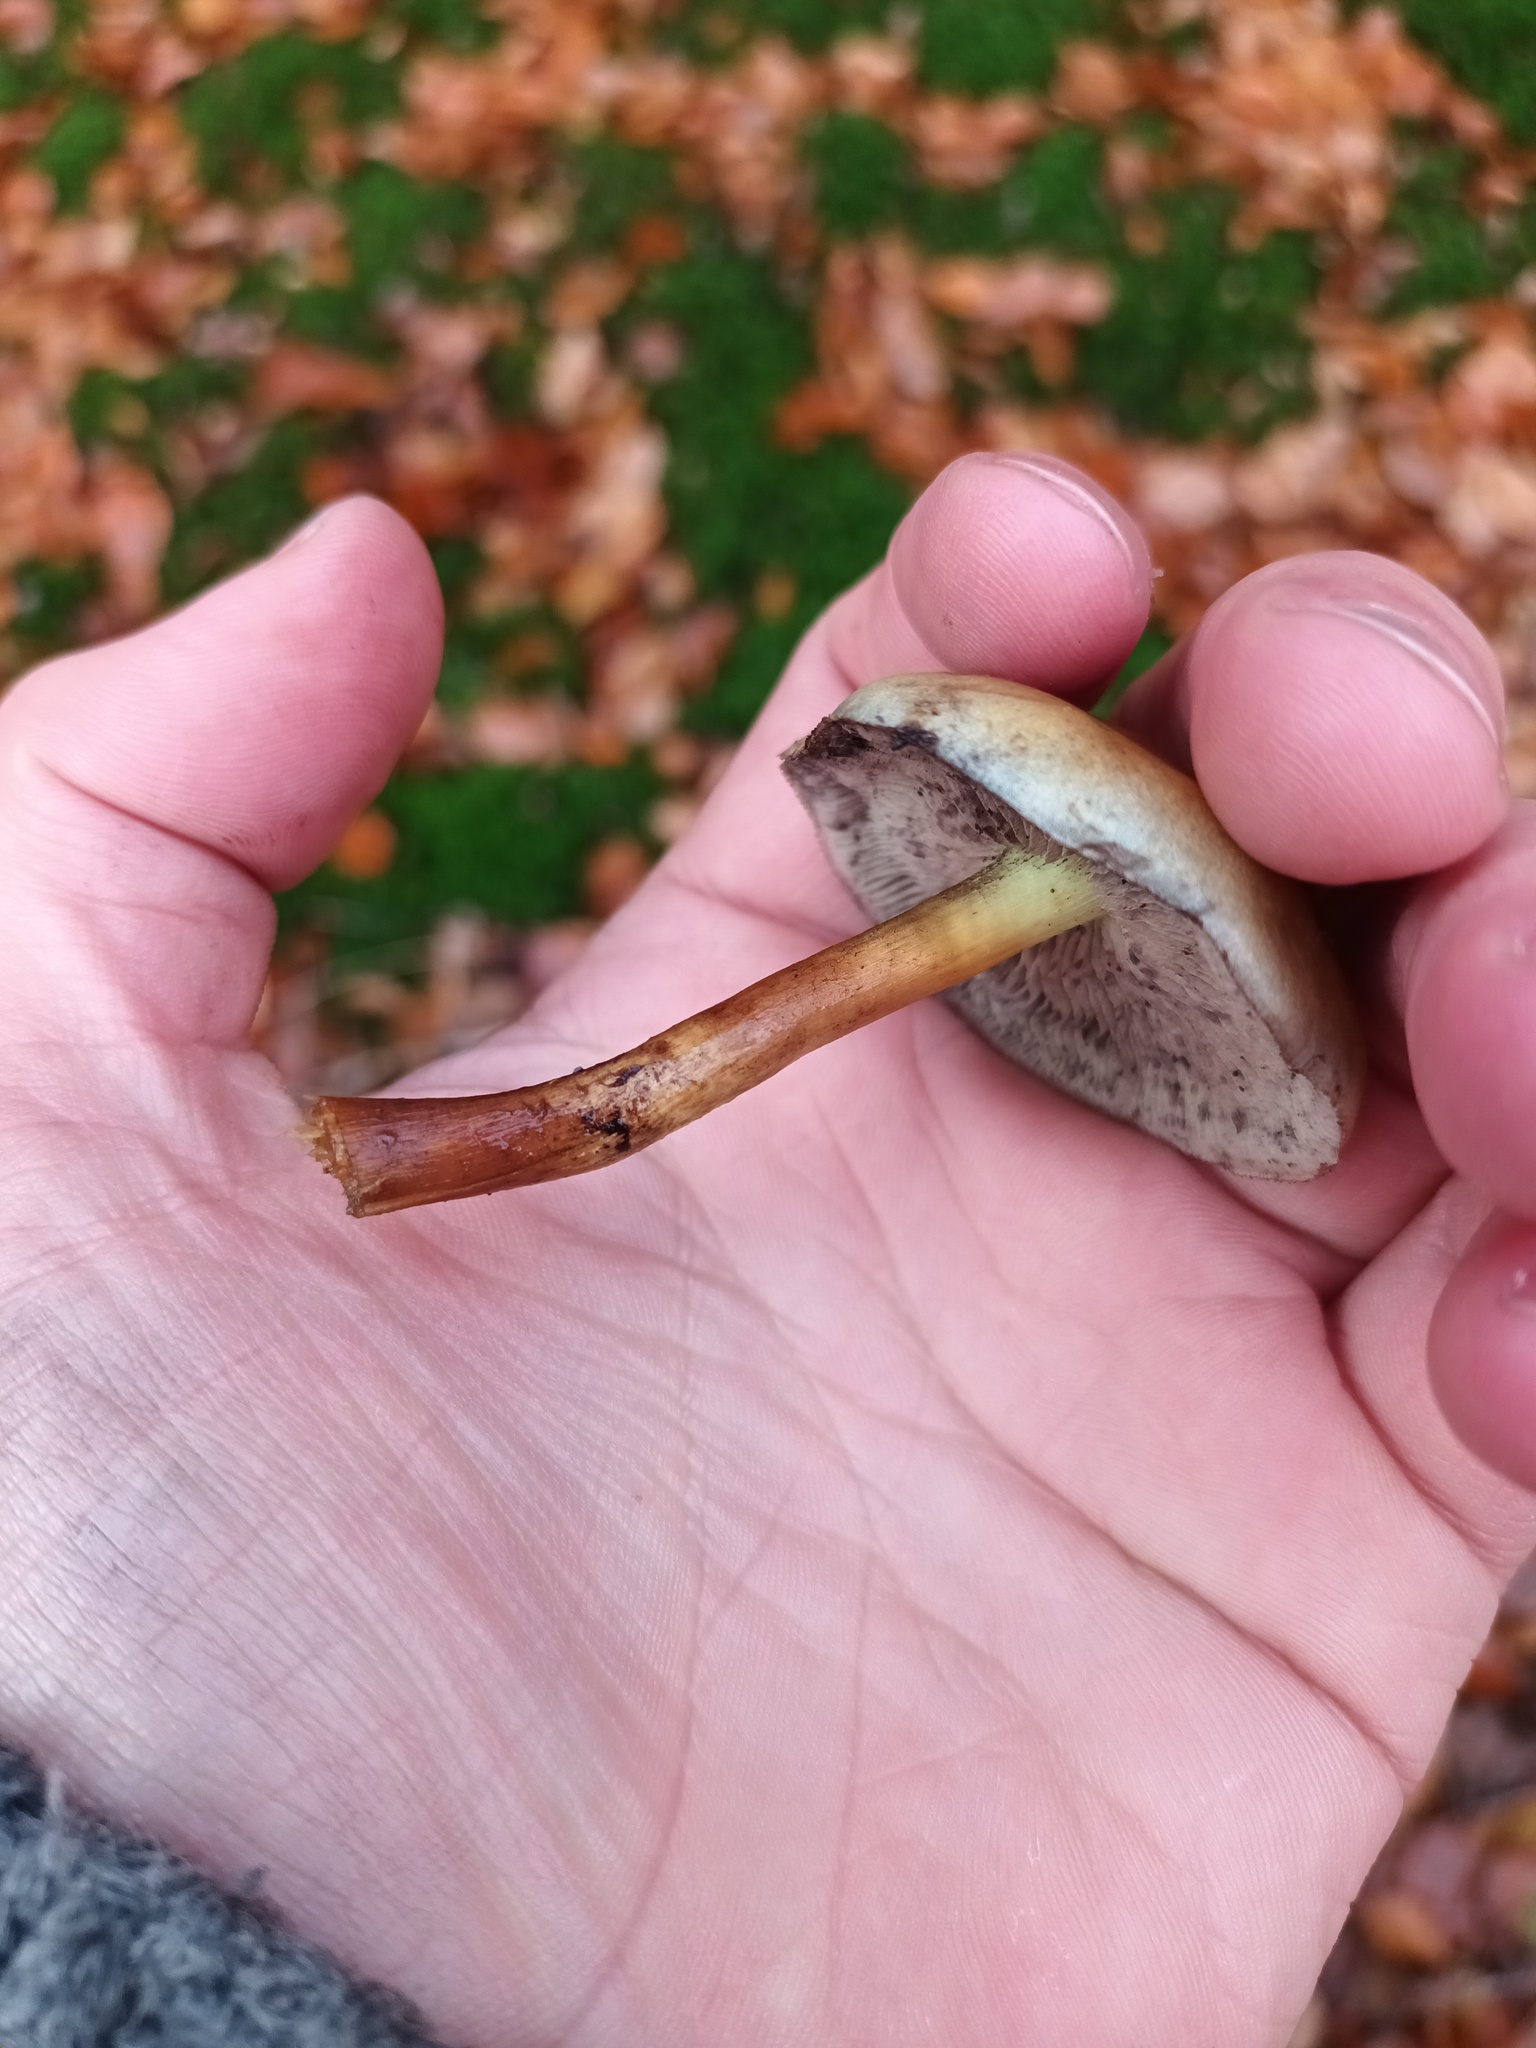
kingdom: Fungi
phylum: Basidiomycota
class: Agaricomycetes
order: Agaricales
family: Strophariaceae
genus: Hypholoma
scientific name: Hypholoma fasciculare
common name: Sulphur tuft
